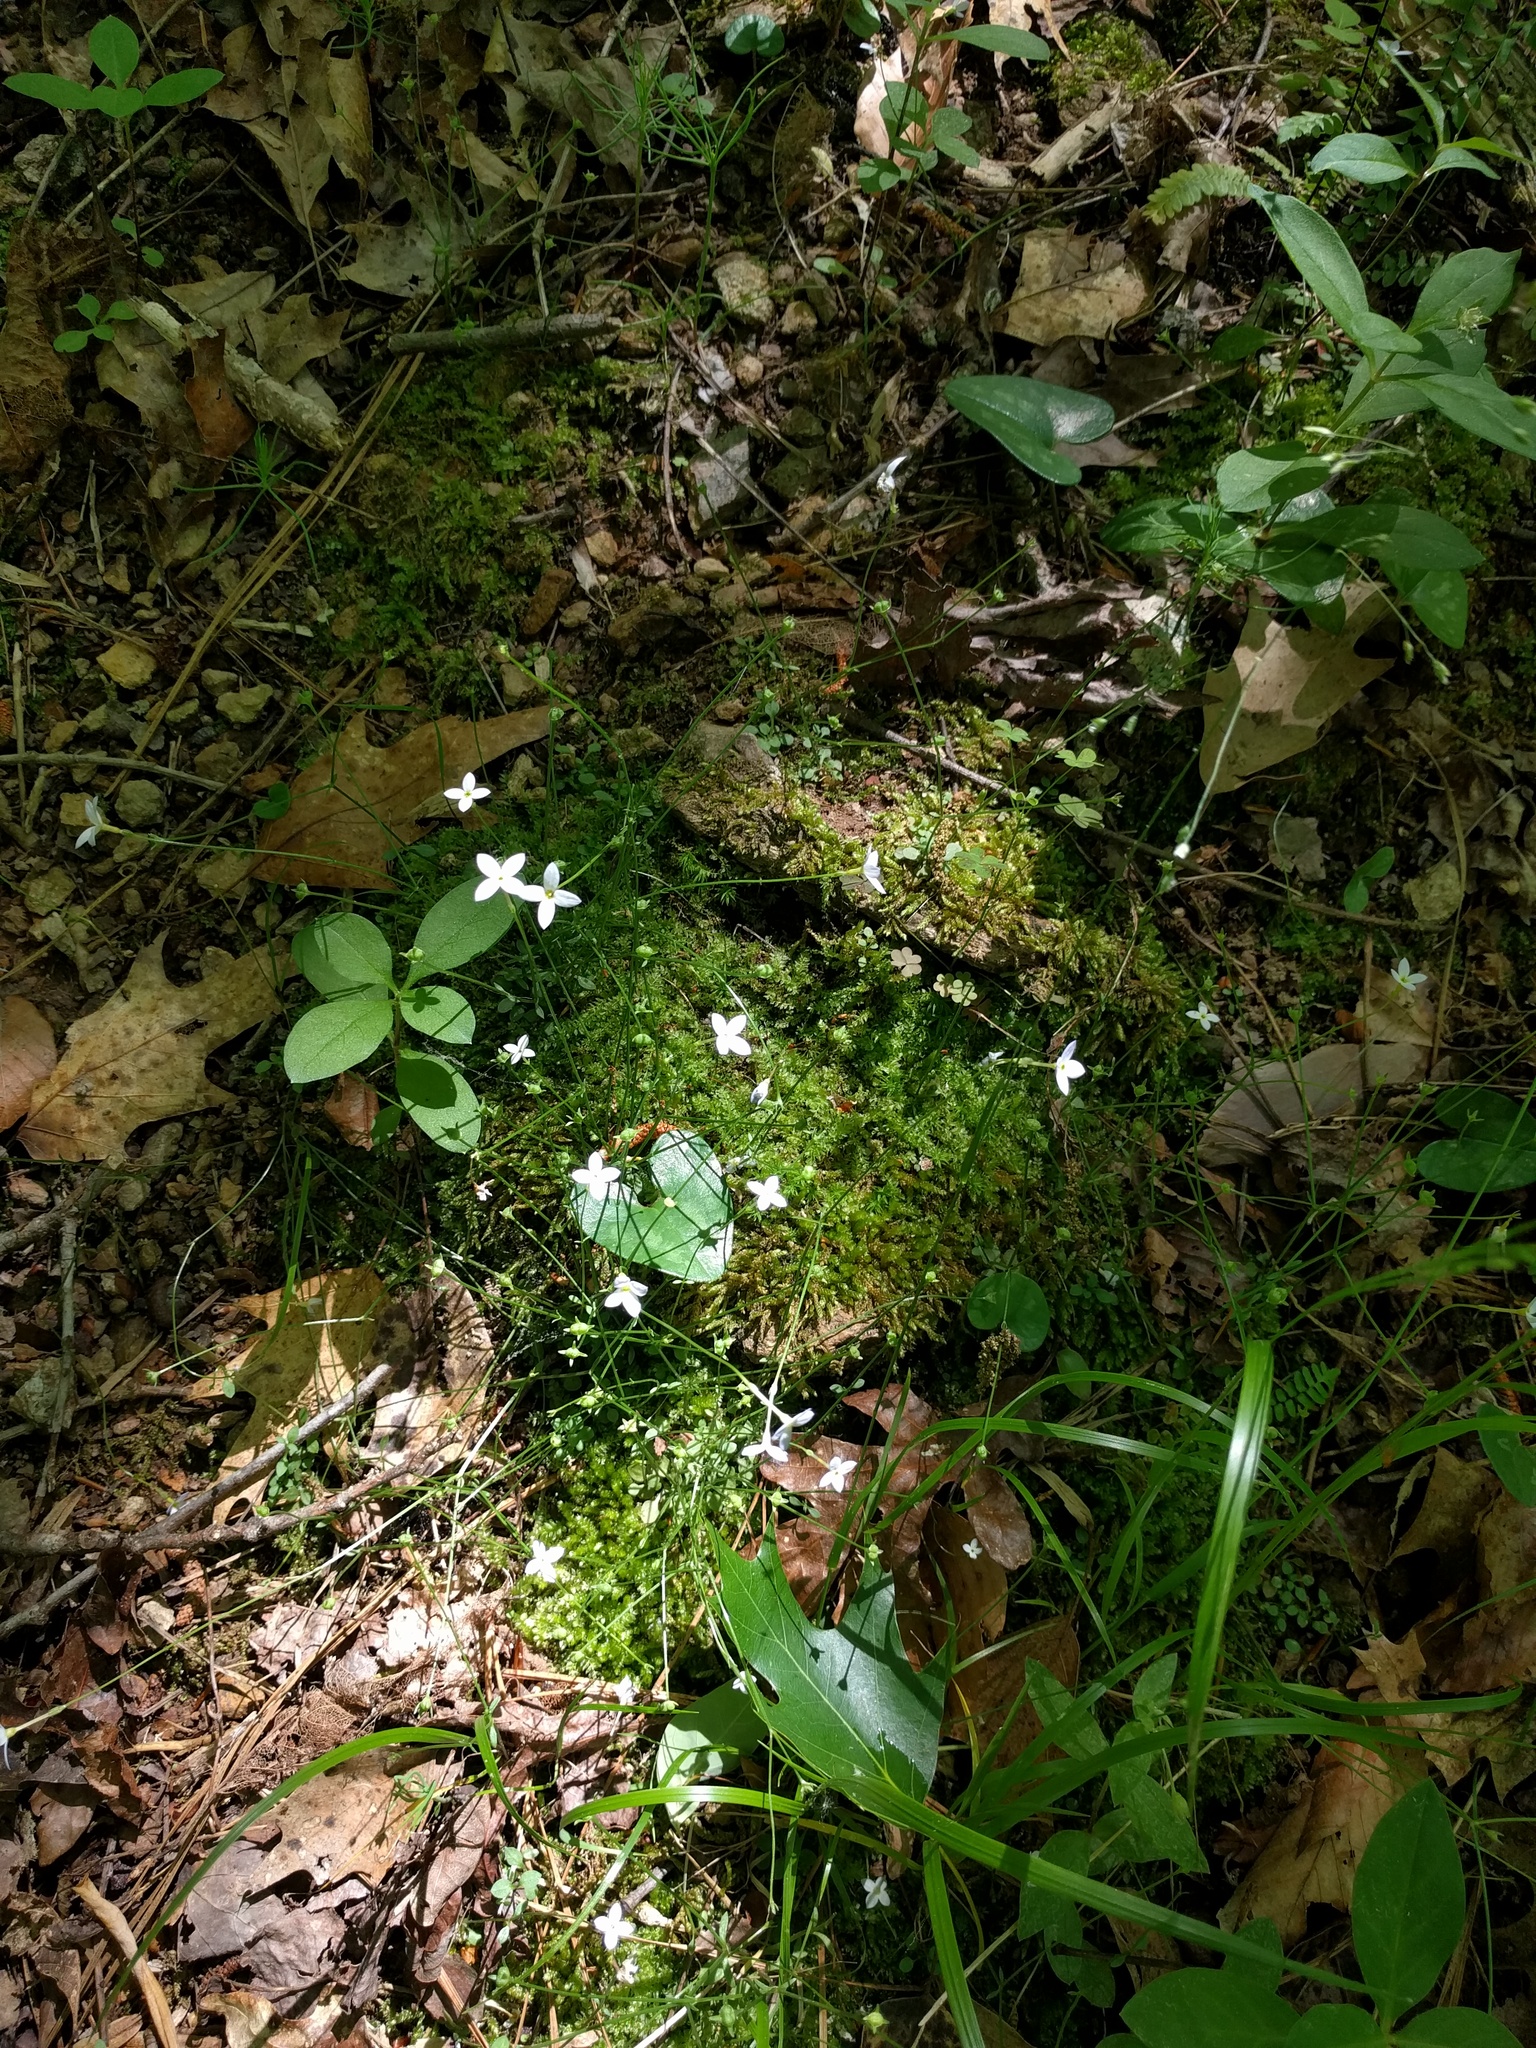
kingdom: Plantae
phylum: Tracheophyta
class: Magnoliopsida
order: Gentianales
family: Rubiaceae
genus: Houstonia
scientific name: Houstonia caerulea
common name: Bluets
